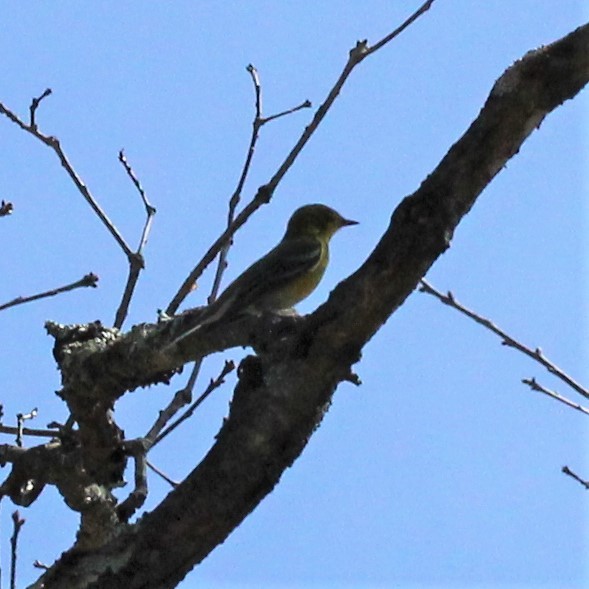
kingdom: Animalia
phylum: Chordata
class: Aves
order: Passeriformes
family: Parulidae
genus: Setophaga
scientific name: Setophaga pinus
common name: Pine warbler
